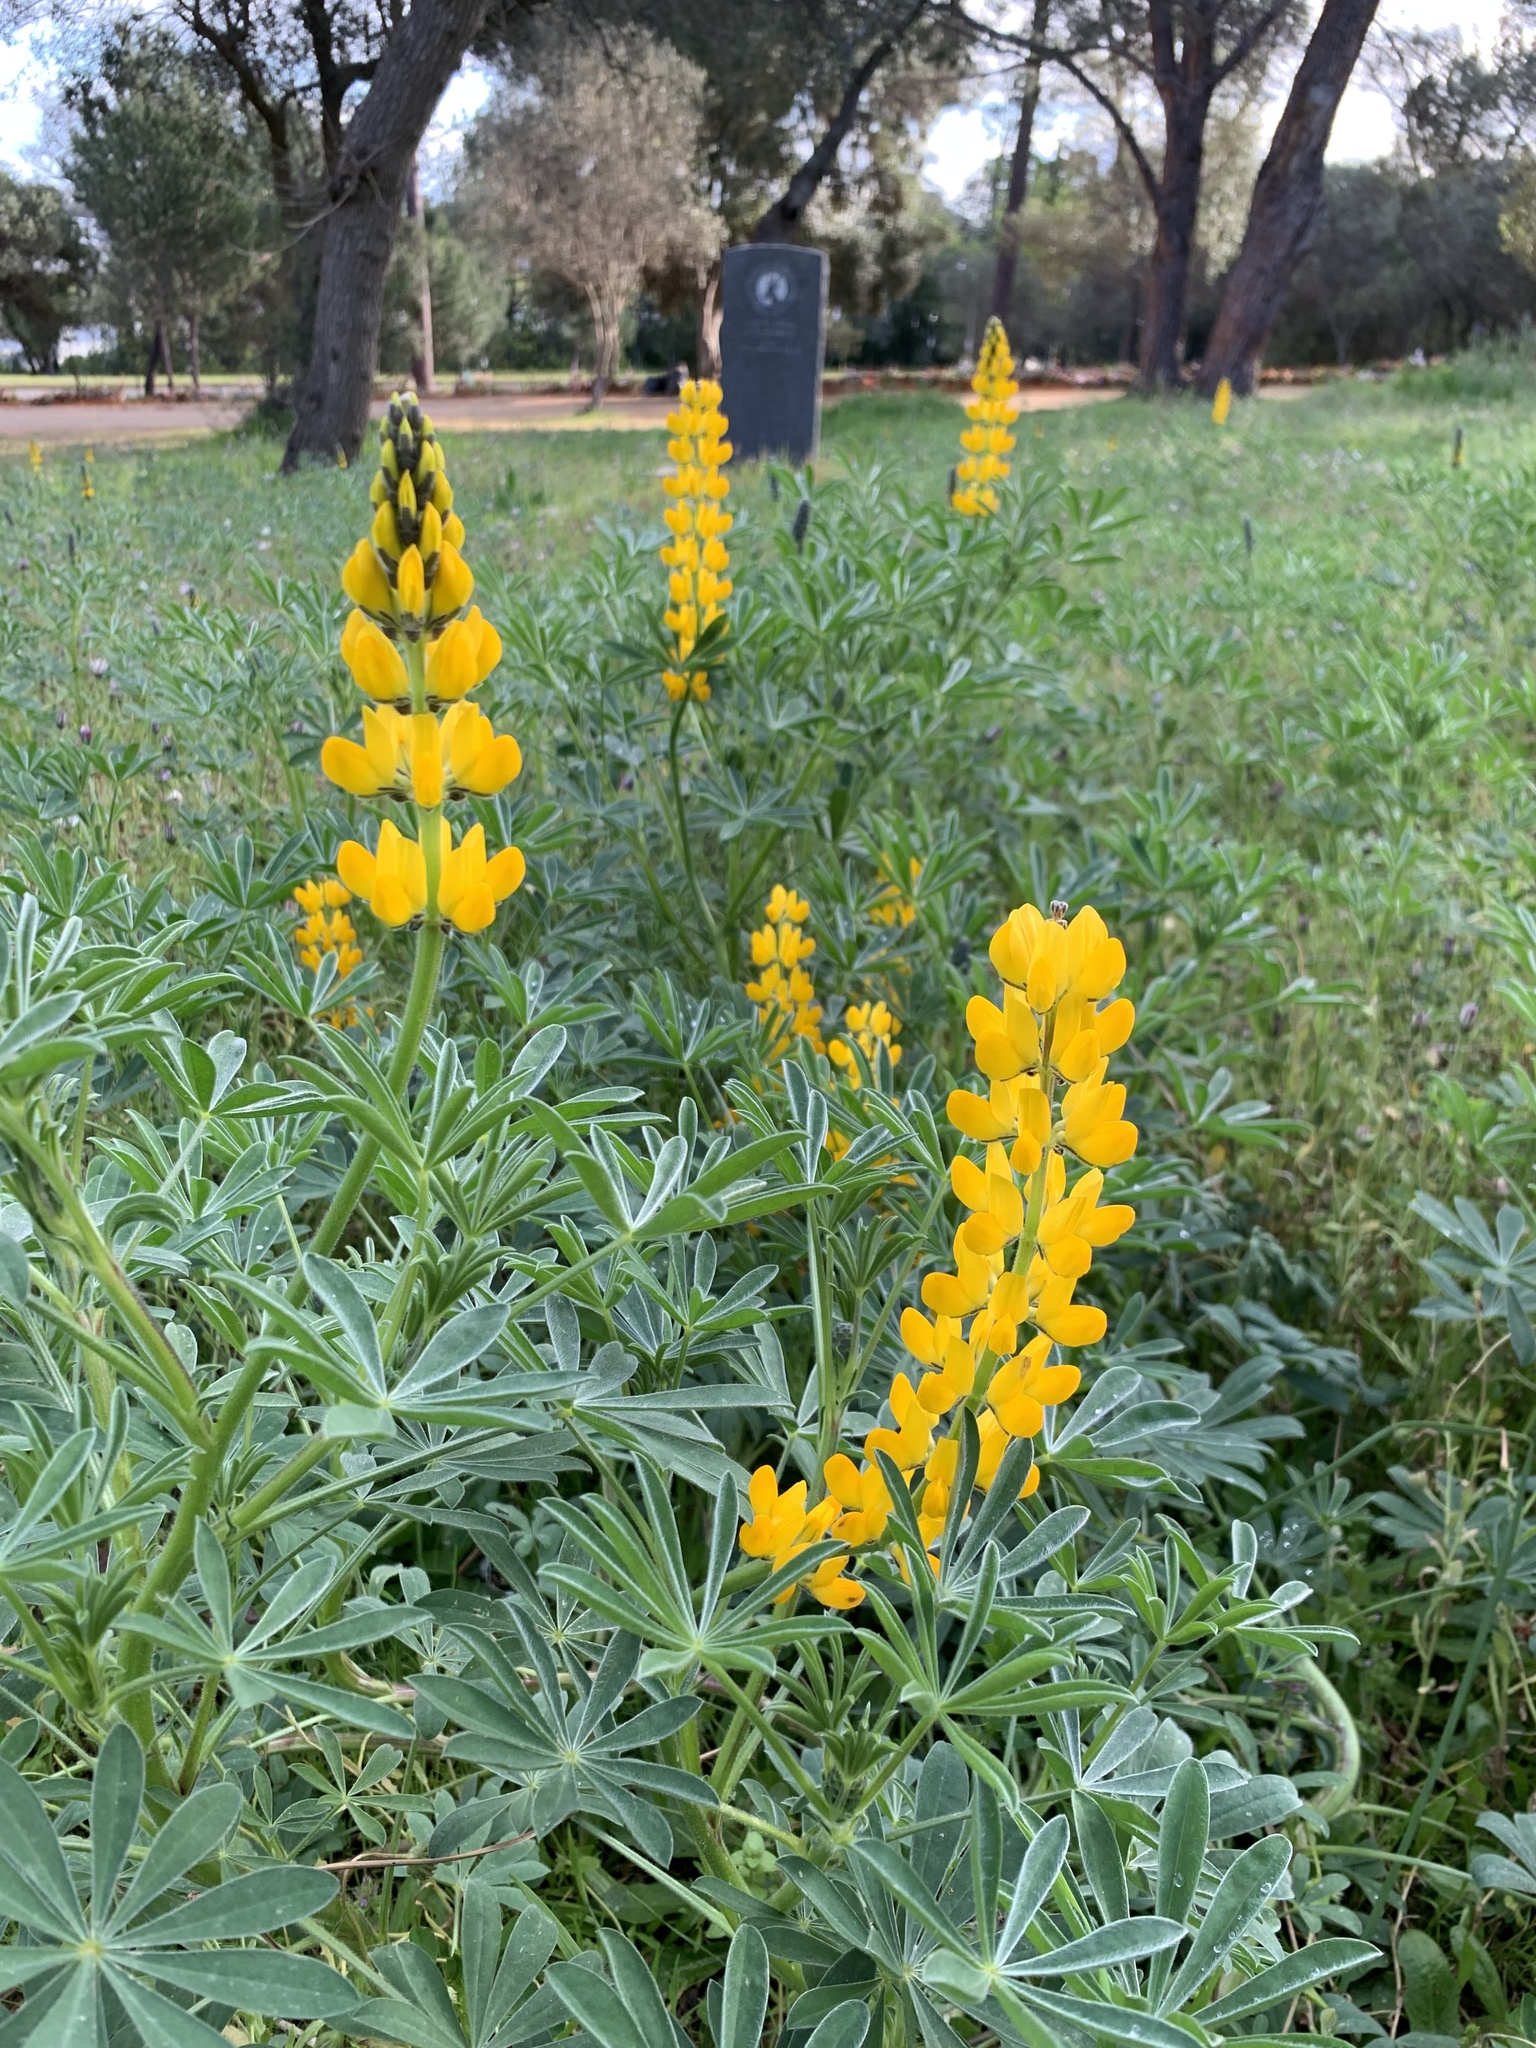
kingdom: Plantae
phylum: Tracheophyta
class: Magnoliopsida
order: Fabales
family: Fabaceae
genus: Lupinus
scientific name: Lupinus luteus
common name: European yellow lupine
